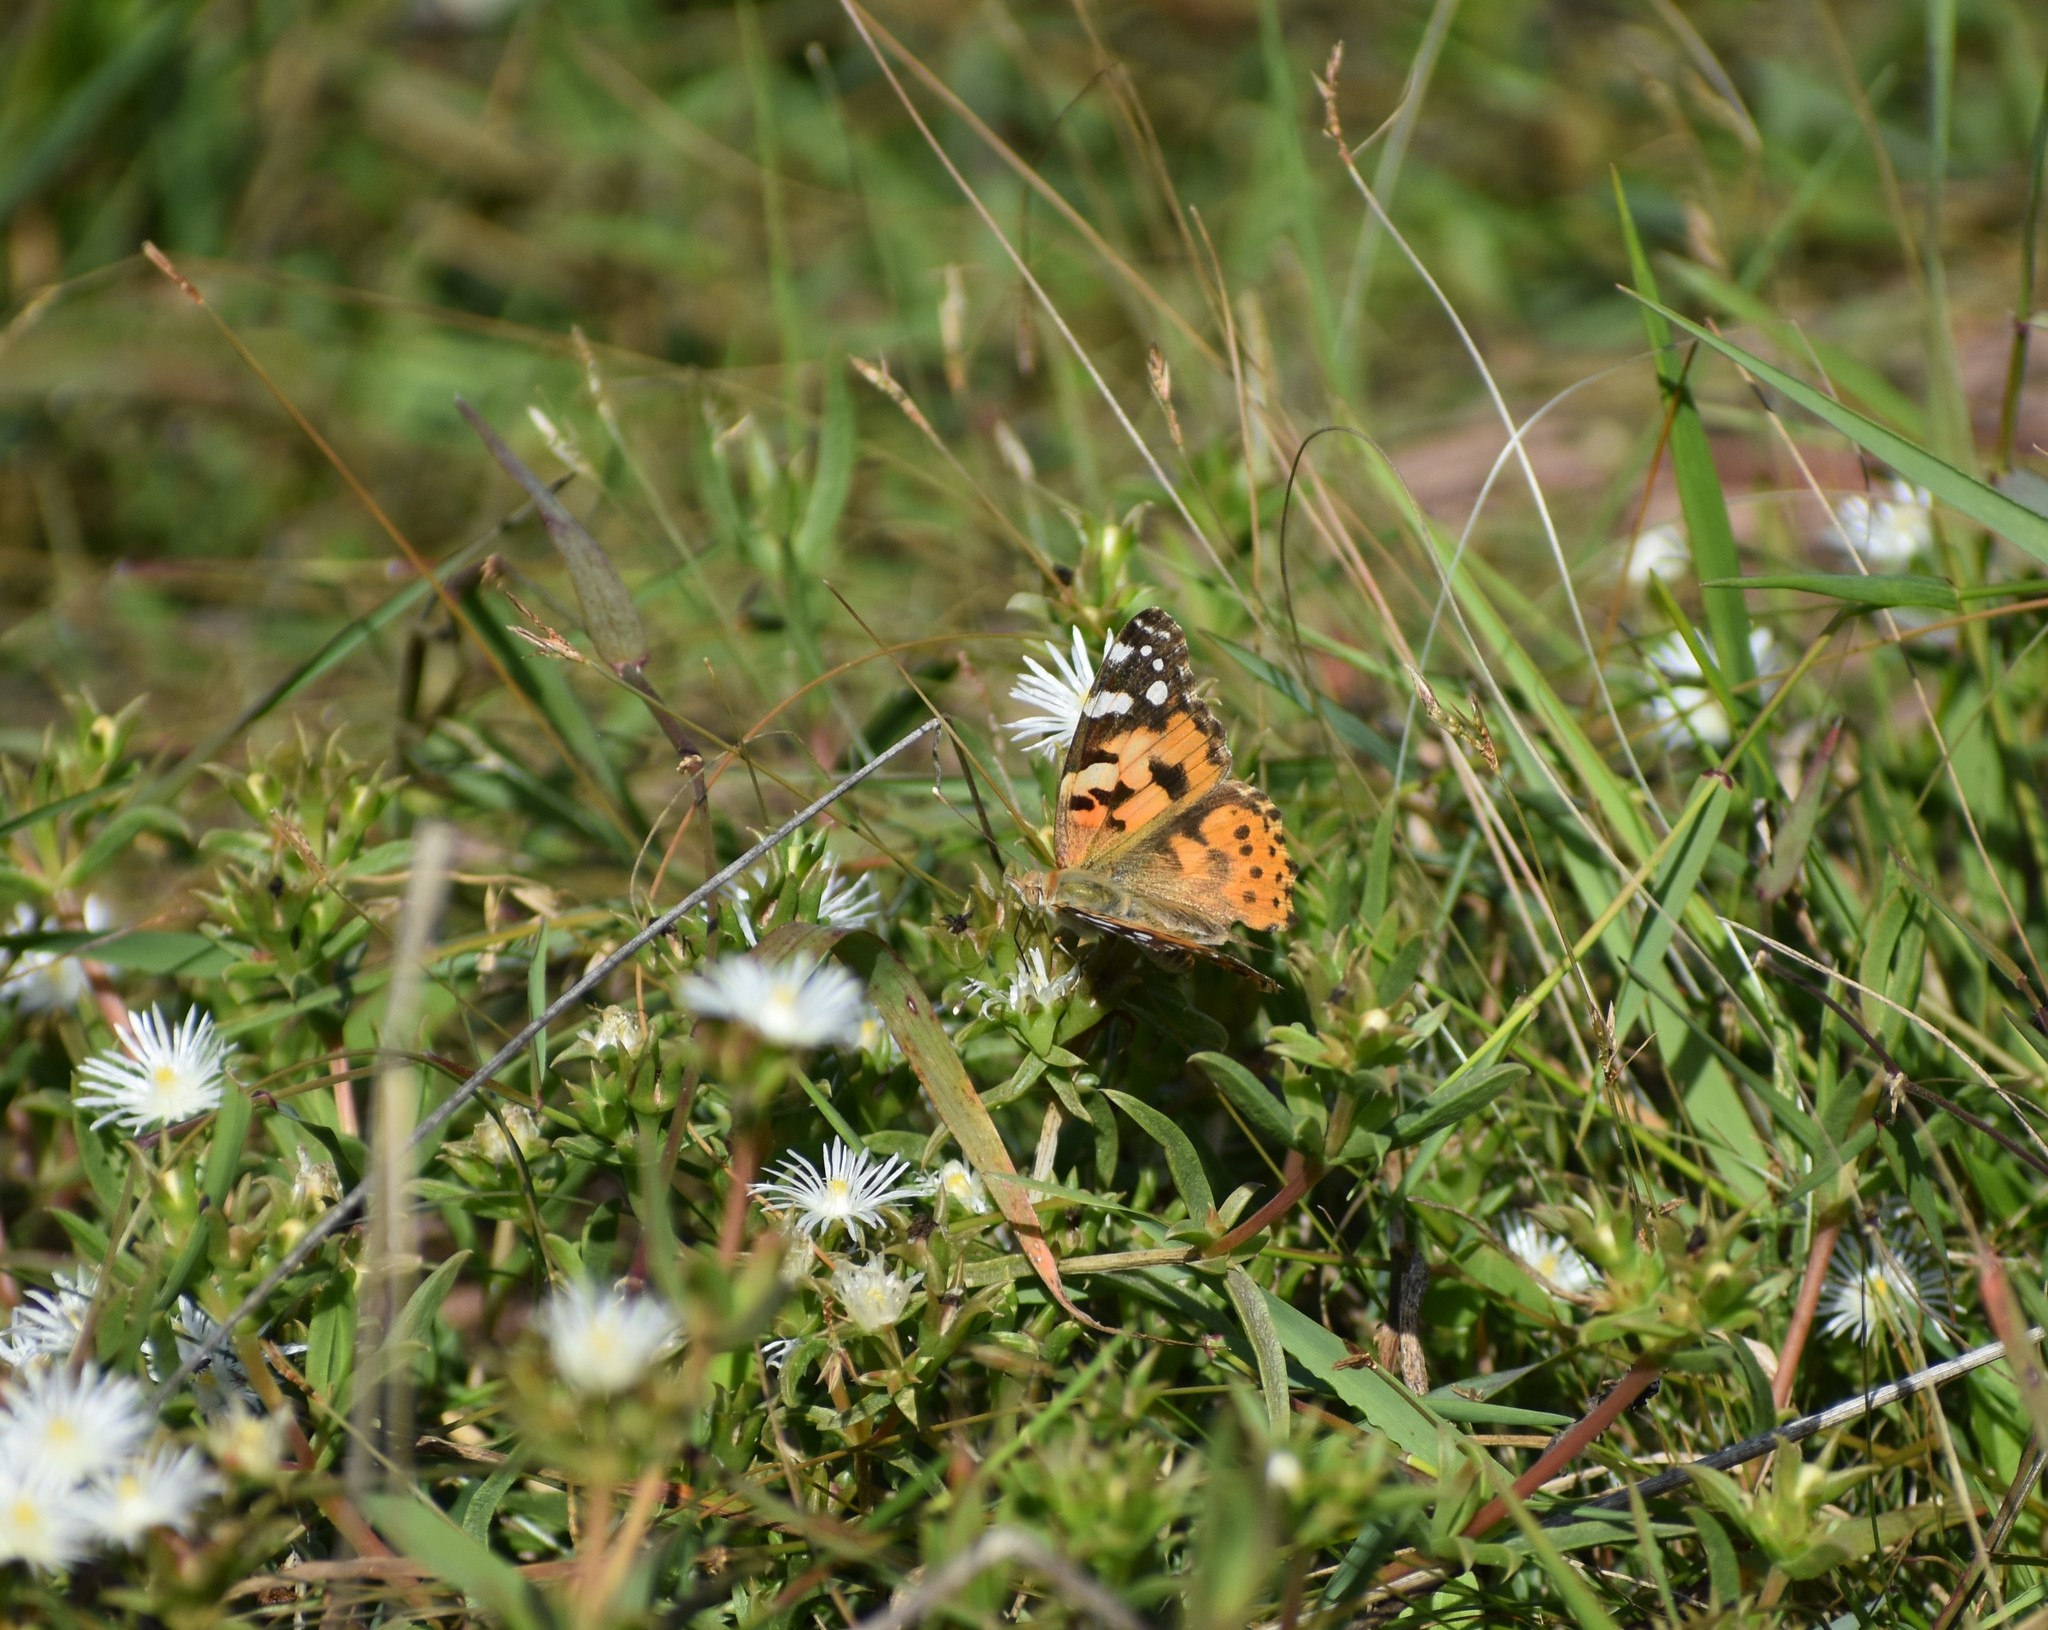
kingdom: Animalia
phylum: Arthropoda
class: Insecta
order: Lepidoptera
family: Nymphalidae
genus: Vanessa
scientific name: Vanessa cardui
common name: Painted lady
